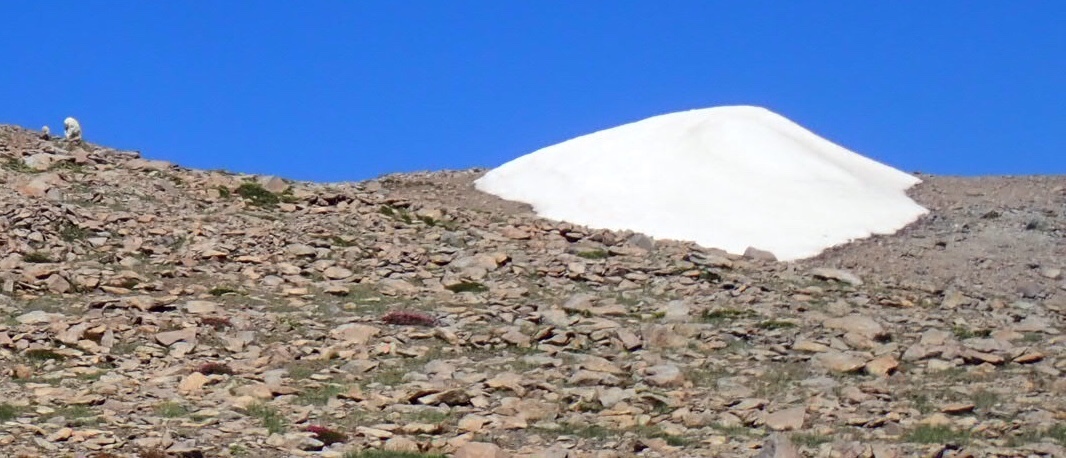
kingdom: Animalia
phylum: Chordata
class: Mammalia
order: Artiodactyla
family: Bovidae
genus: Oreamnos
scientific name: Oreamnos americanus
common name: Mountain goat
